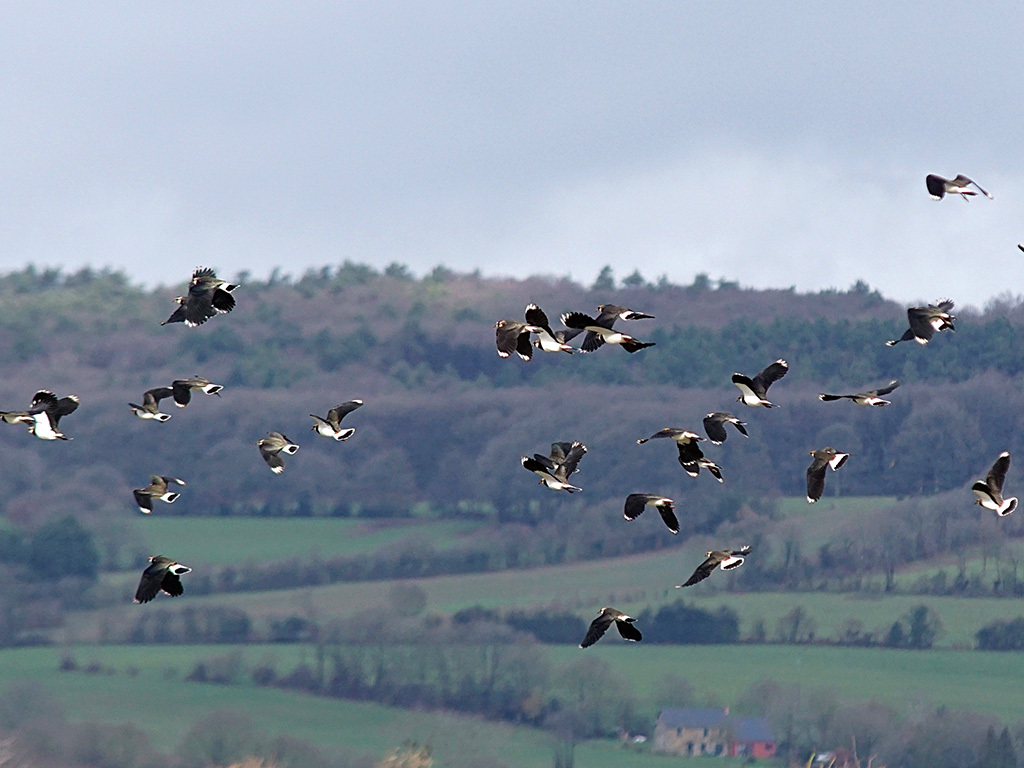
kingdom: Animalia
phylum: Chordata
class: Aves
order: Charadriiformes
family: Charadriidae
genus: Vanellus
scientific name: Vanellus vanellus
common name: Northern lapwing
